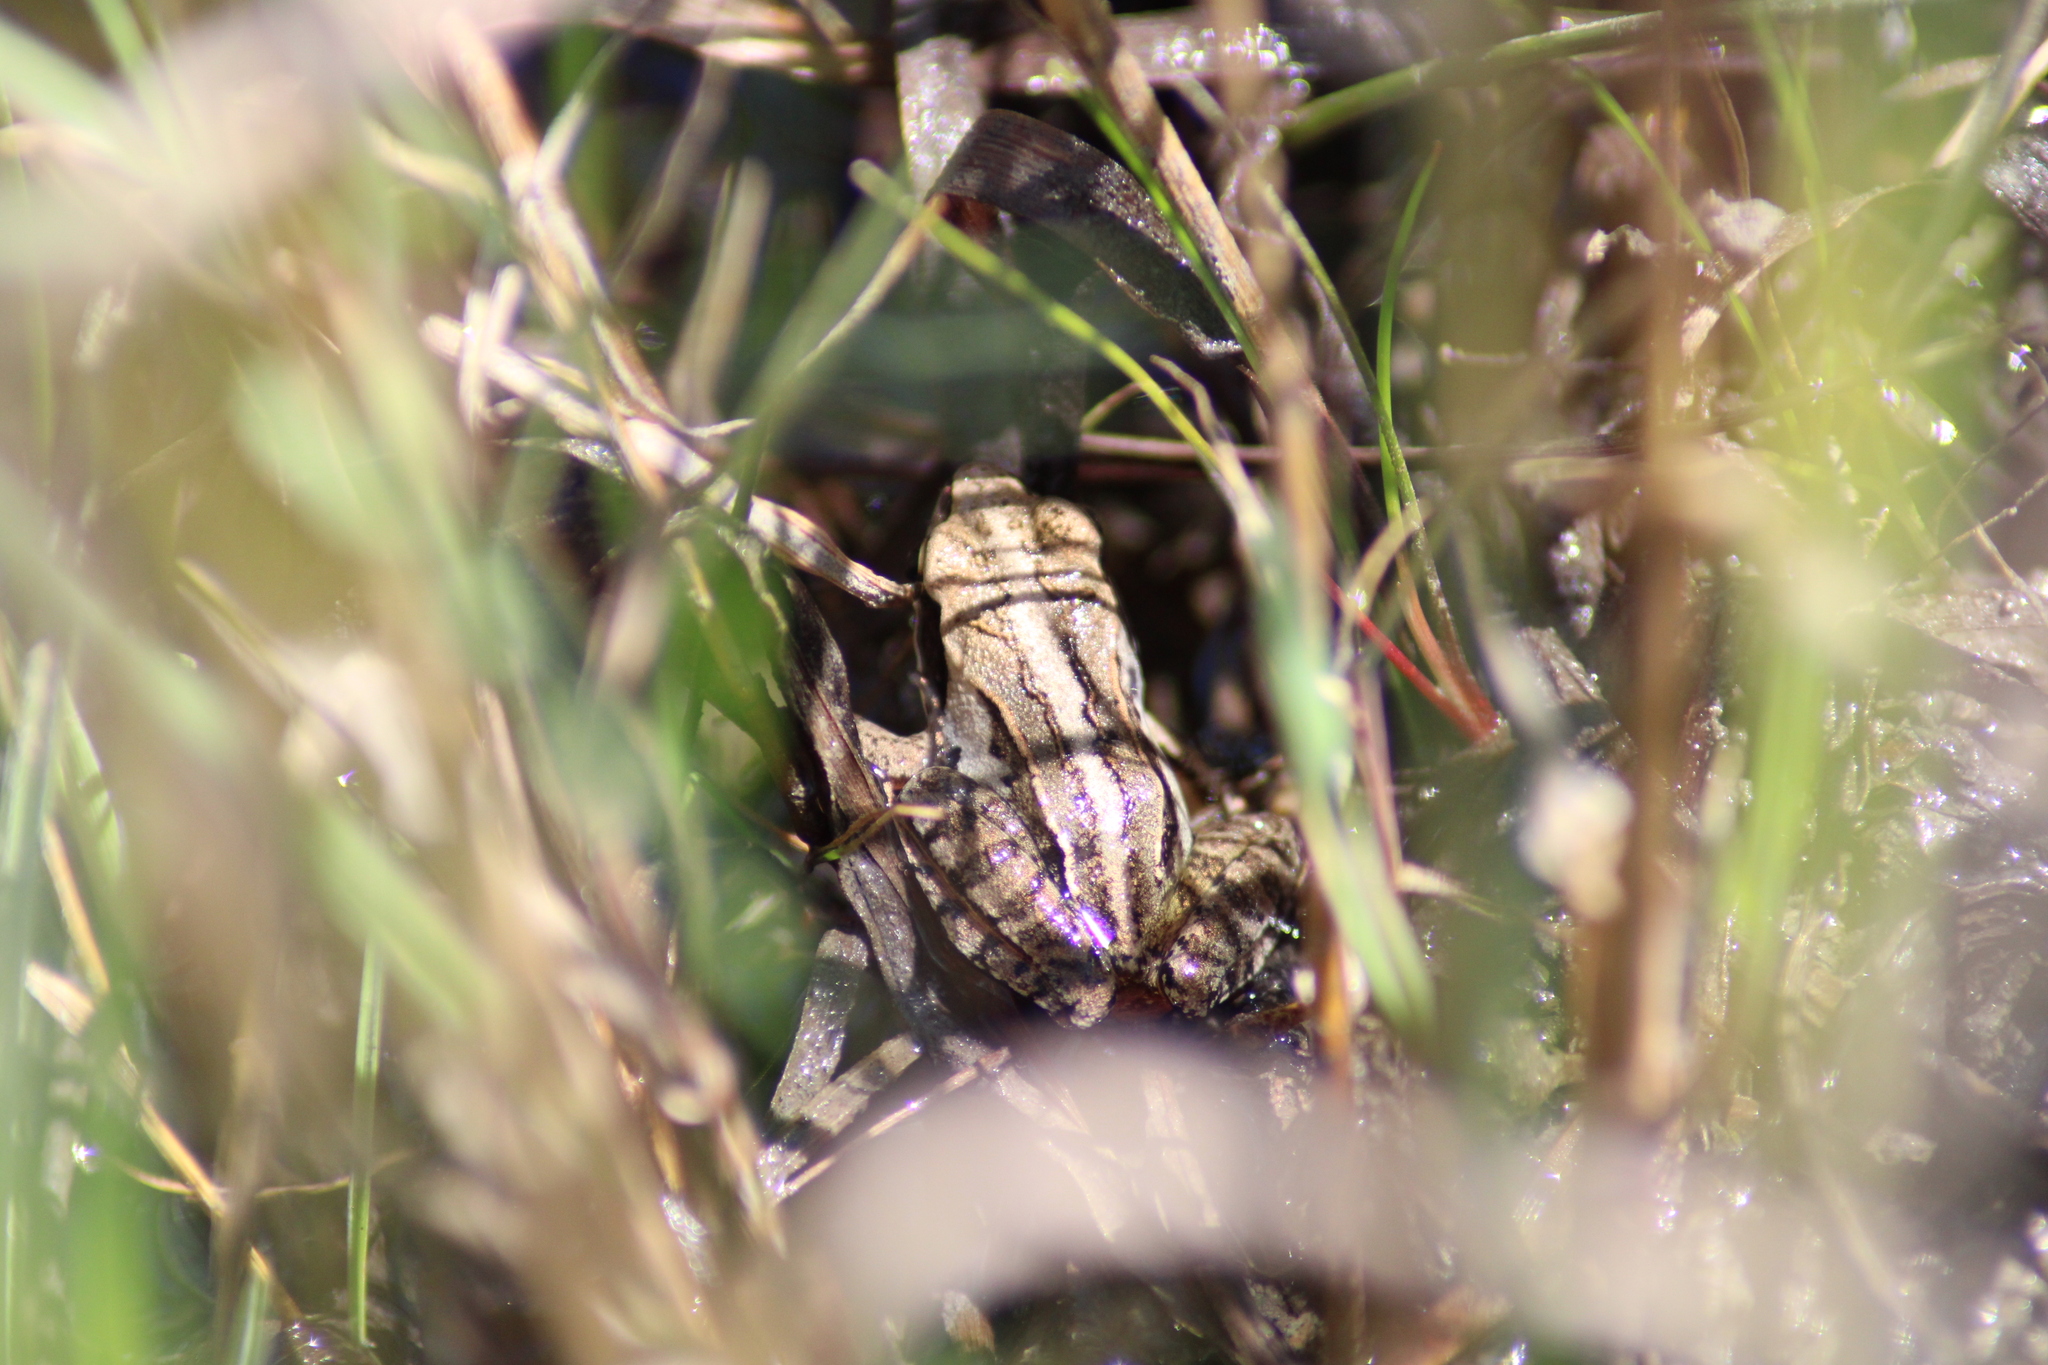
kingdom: Animalia
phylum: Chordata
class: Amphibia
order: Anura
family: Ranidae
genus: Rana
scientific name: Rana arvalis
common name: Moor frog
